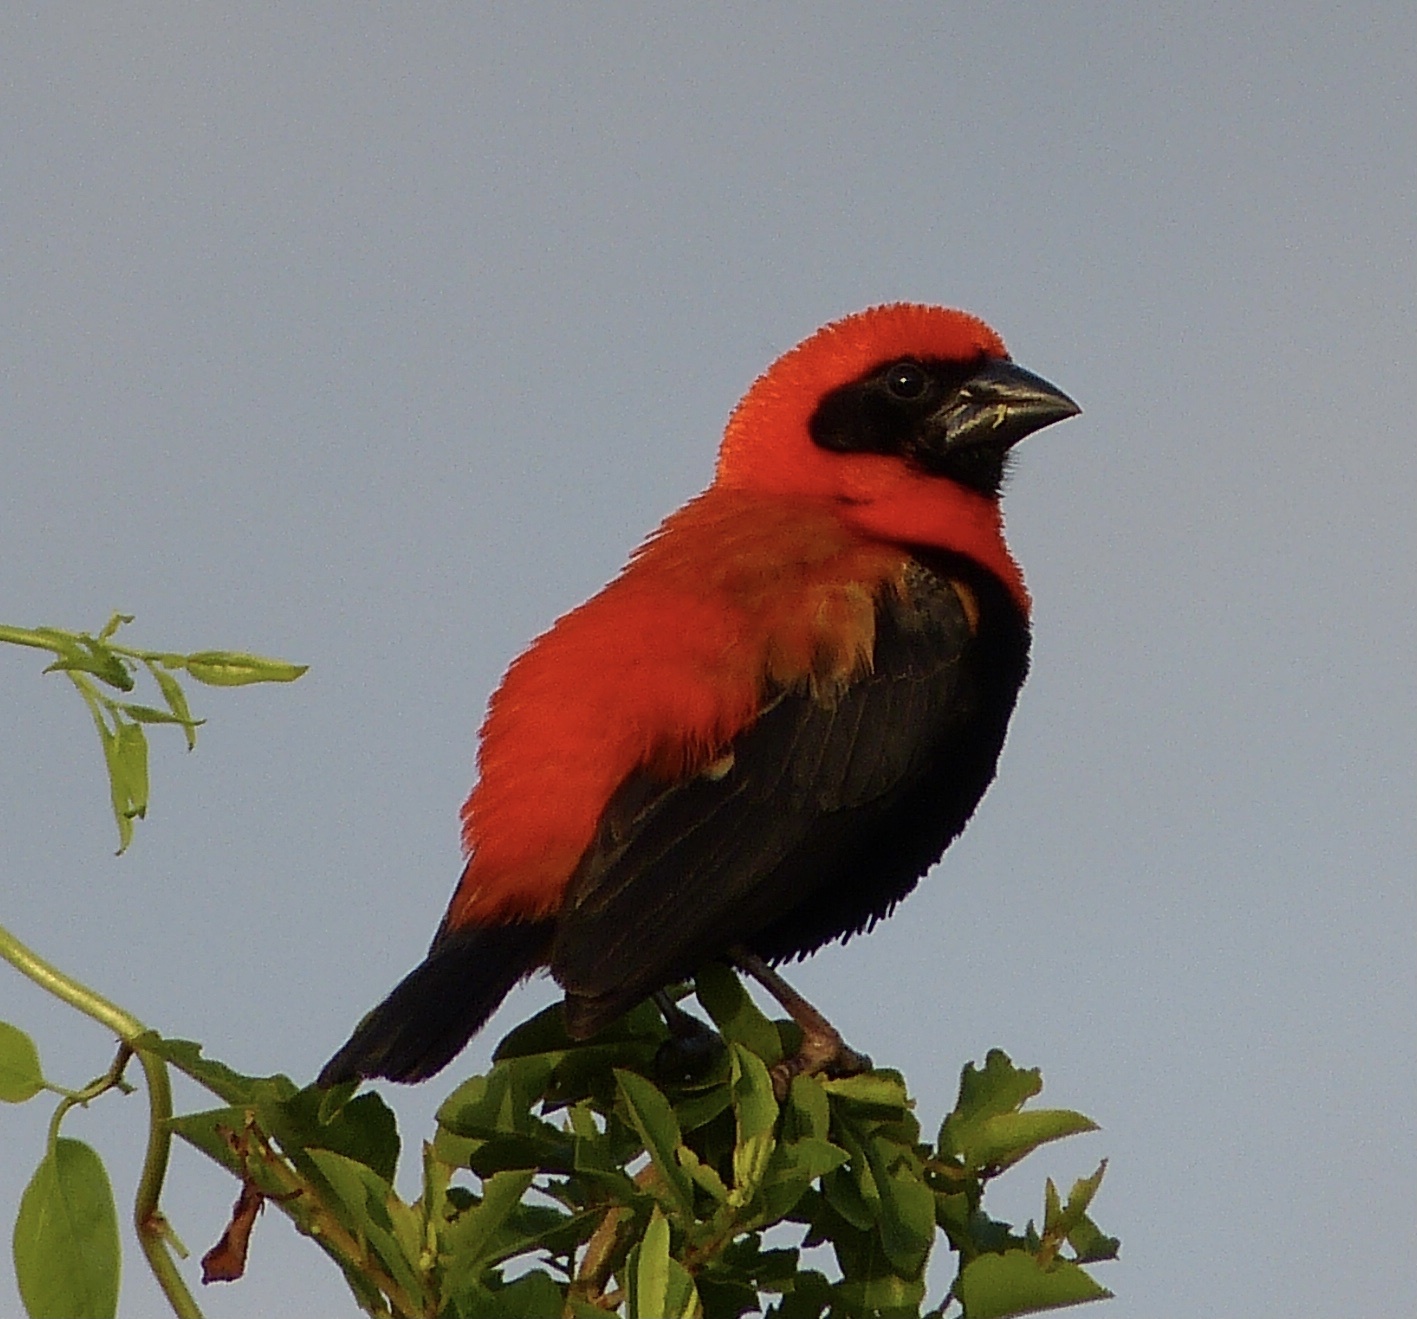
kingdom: Animalia
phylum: Chordata
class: Aves
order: Passeriformes
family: Ploceidae
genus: Euplectes
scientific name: Euplectes hordeaceus
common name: Black-winged red bishop
